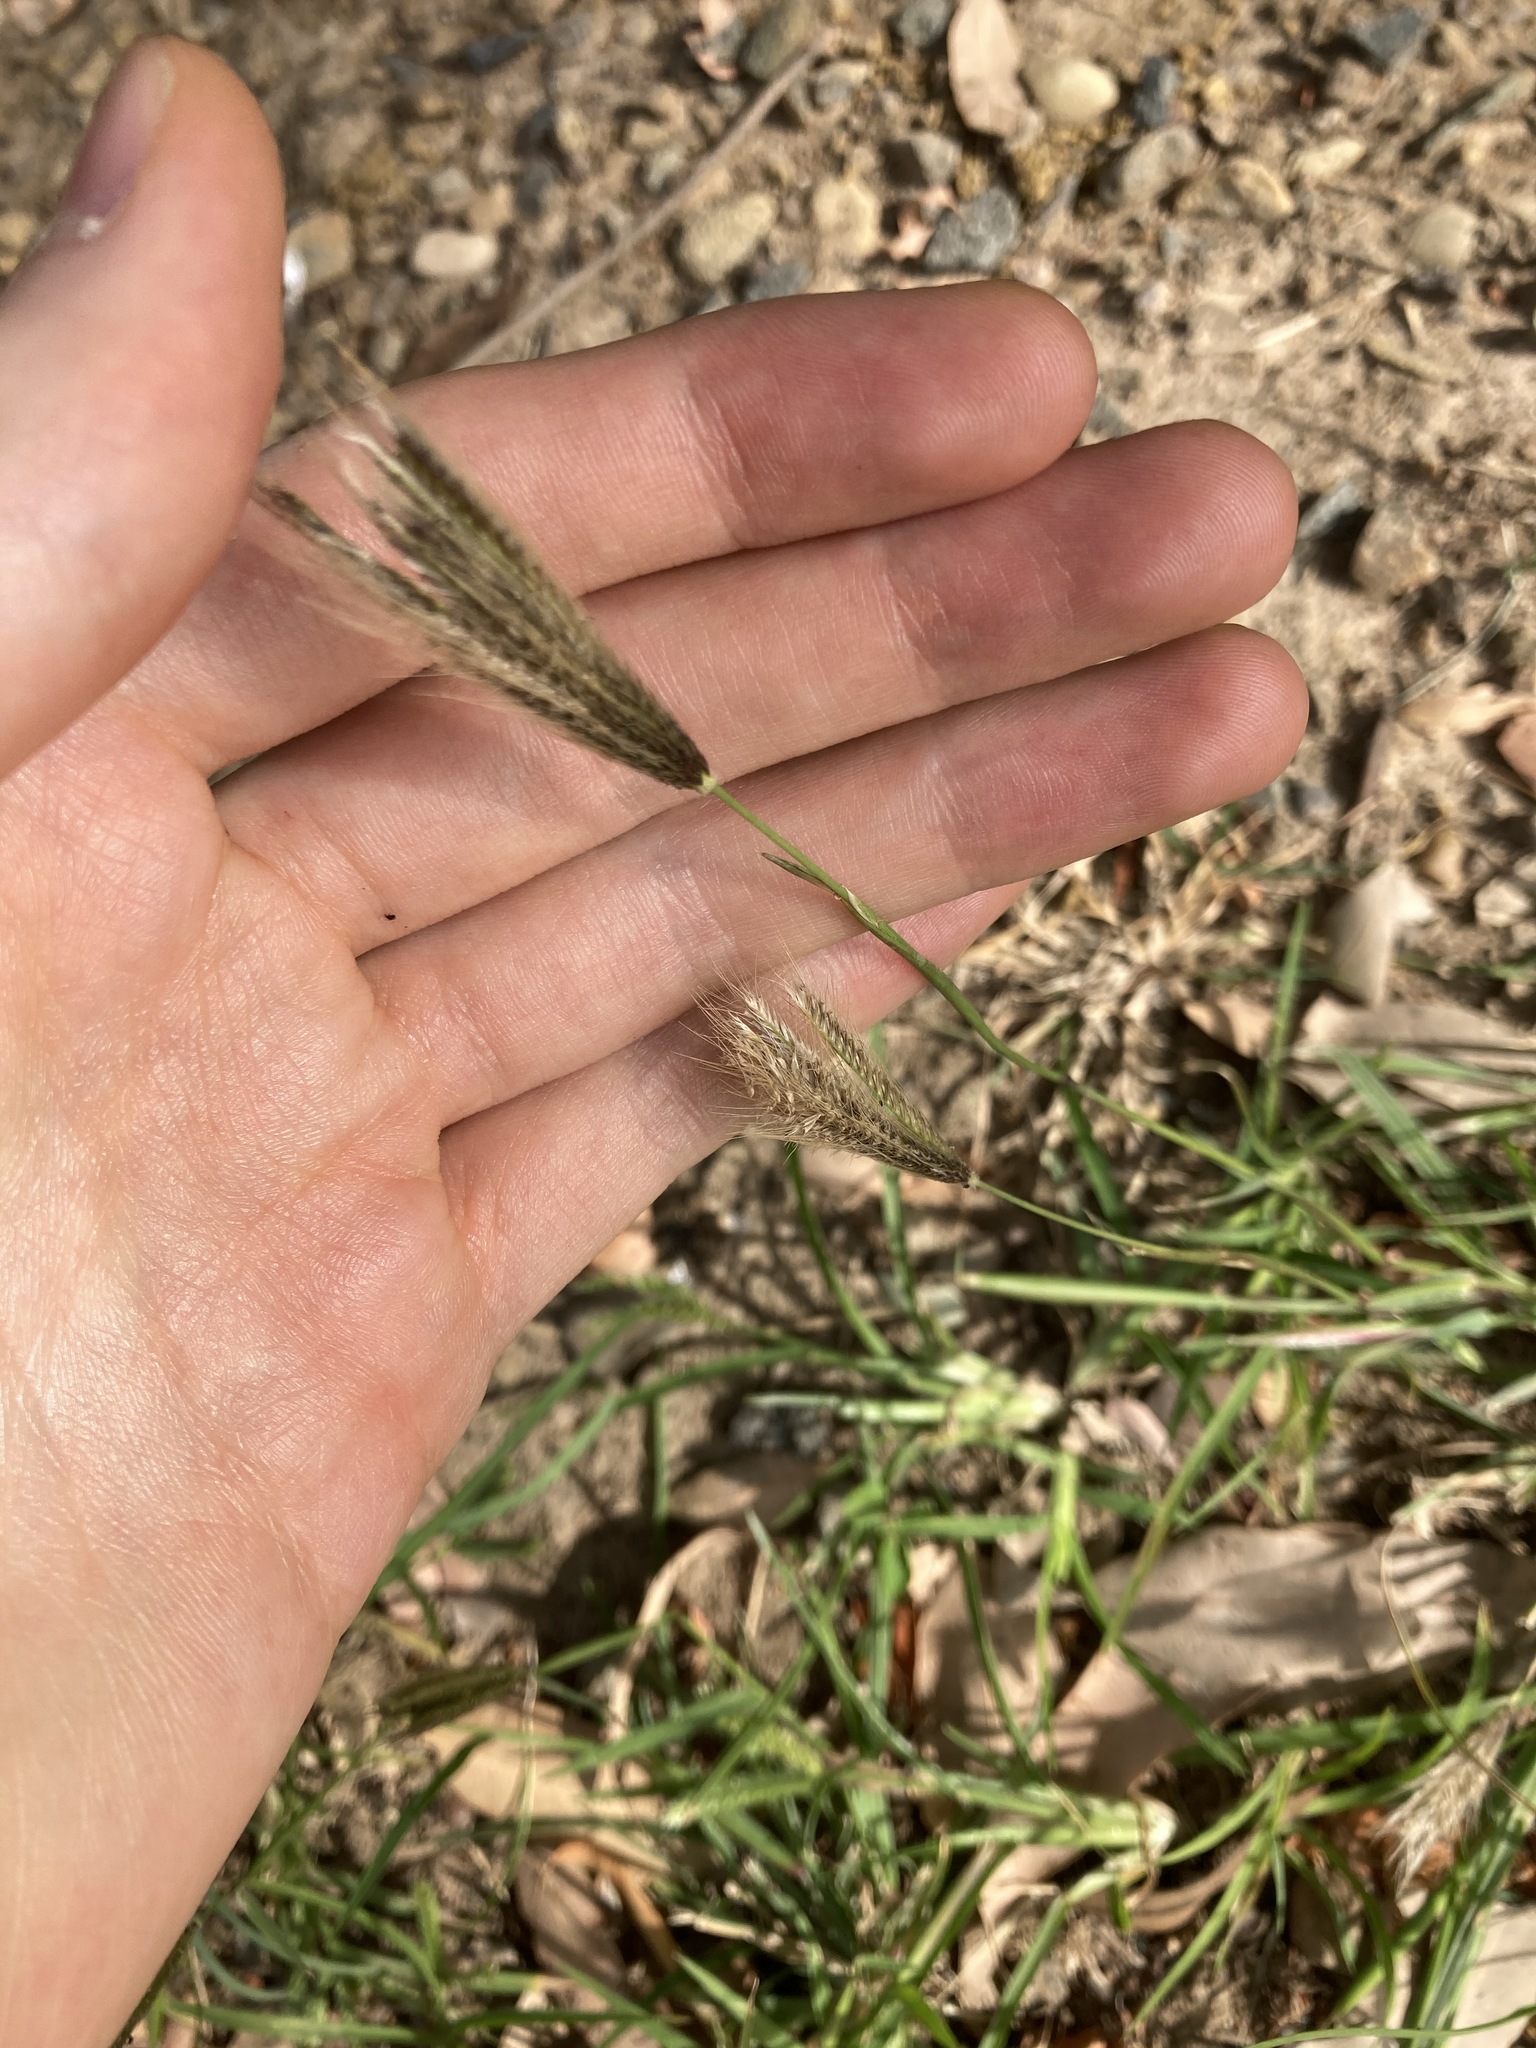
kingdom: Plantae
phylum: Tracheophyta
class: Liliopsida
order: Poales
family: Poaceae
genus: Chloris
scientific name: Chloris virgata
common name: Feathery rhodes-grass
